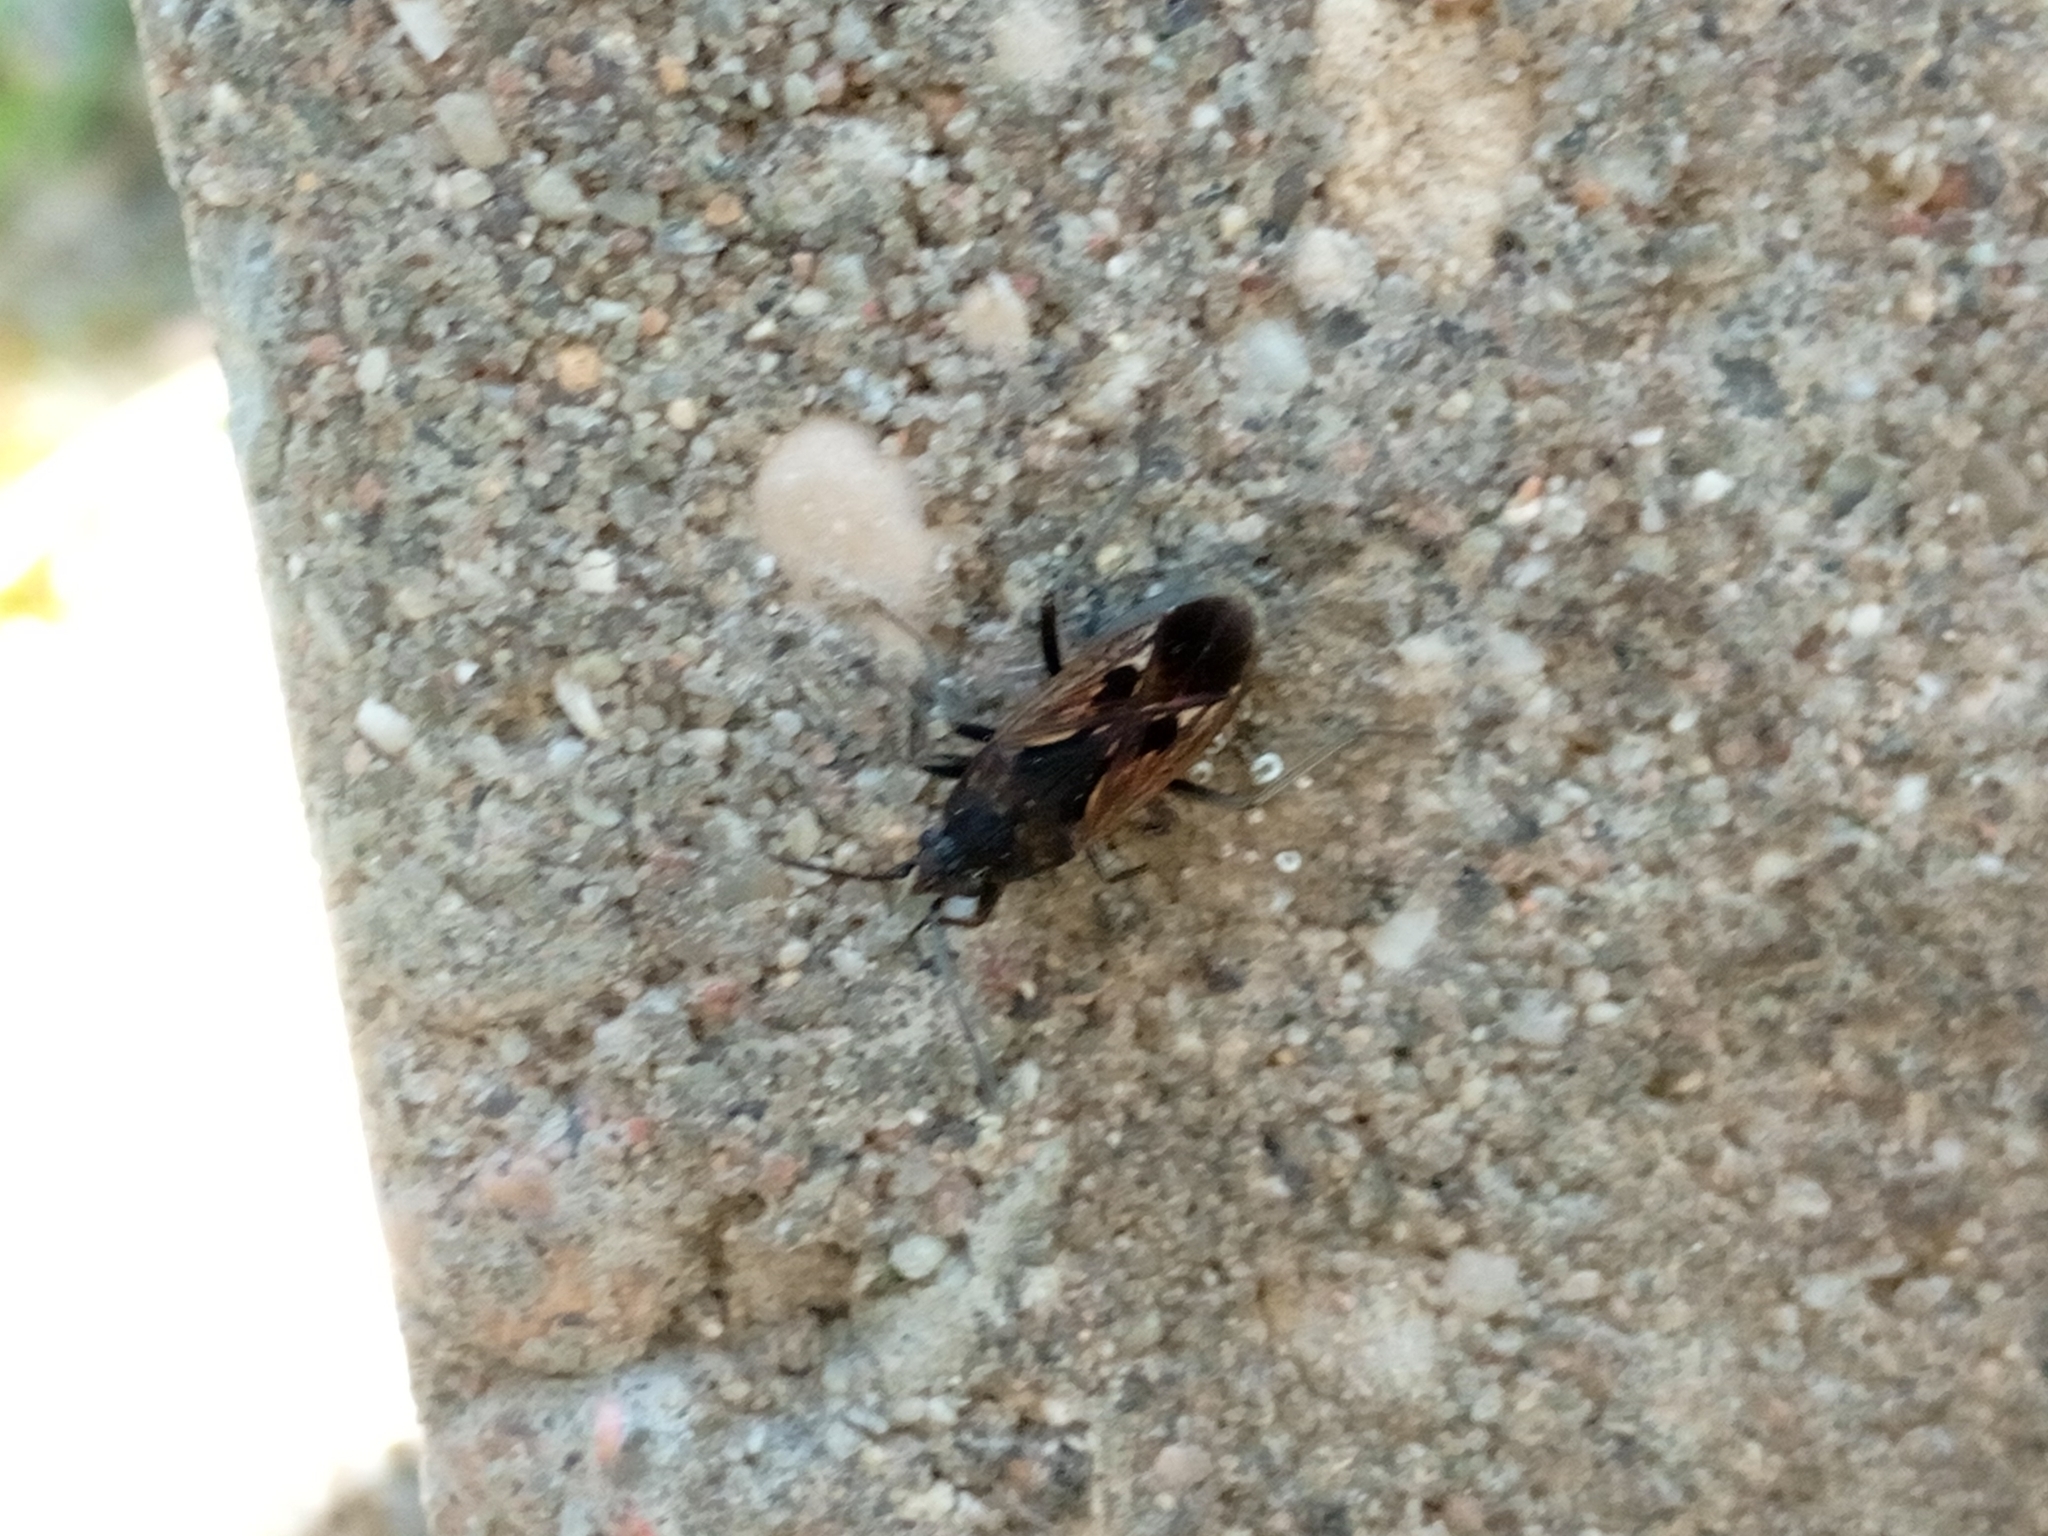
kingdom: Animalia
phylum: Arthropoda
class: Insecta
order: Hemiptera
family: Rhyparochromidae
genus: Rhyparochromus
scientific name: Rhyparochromus pini
